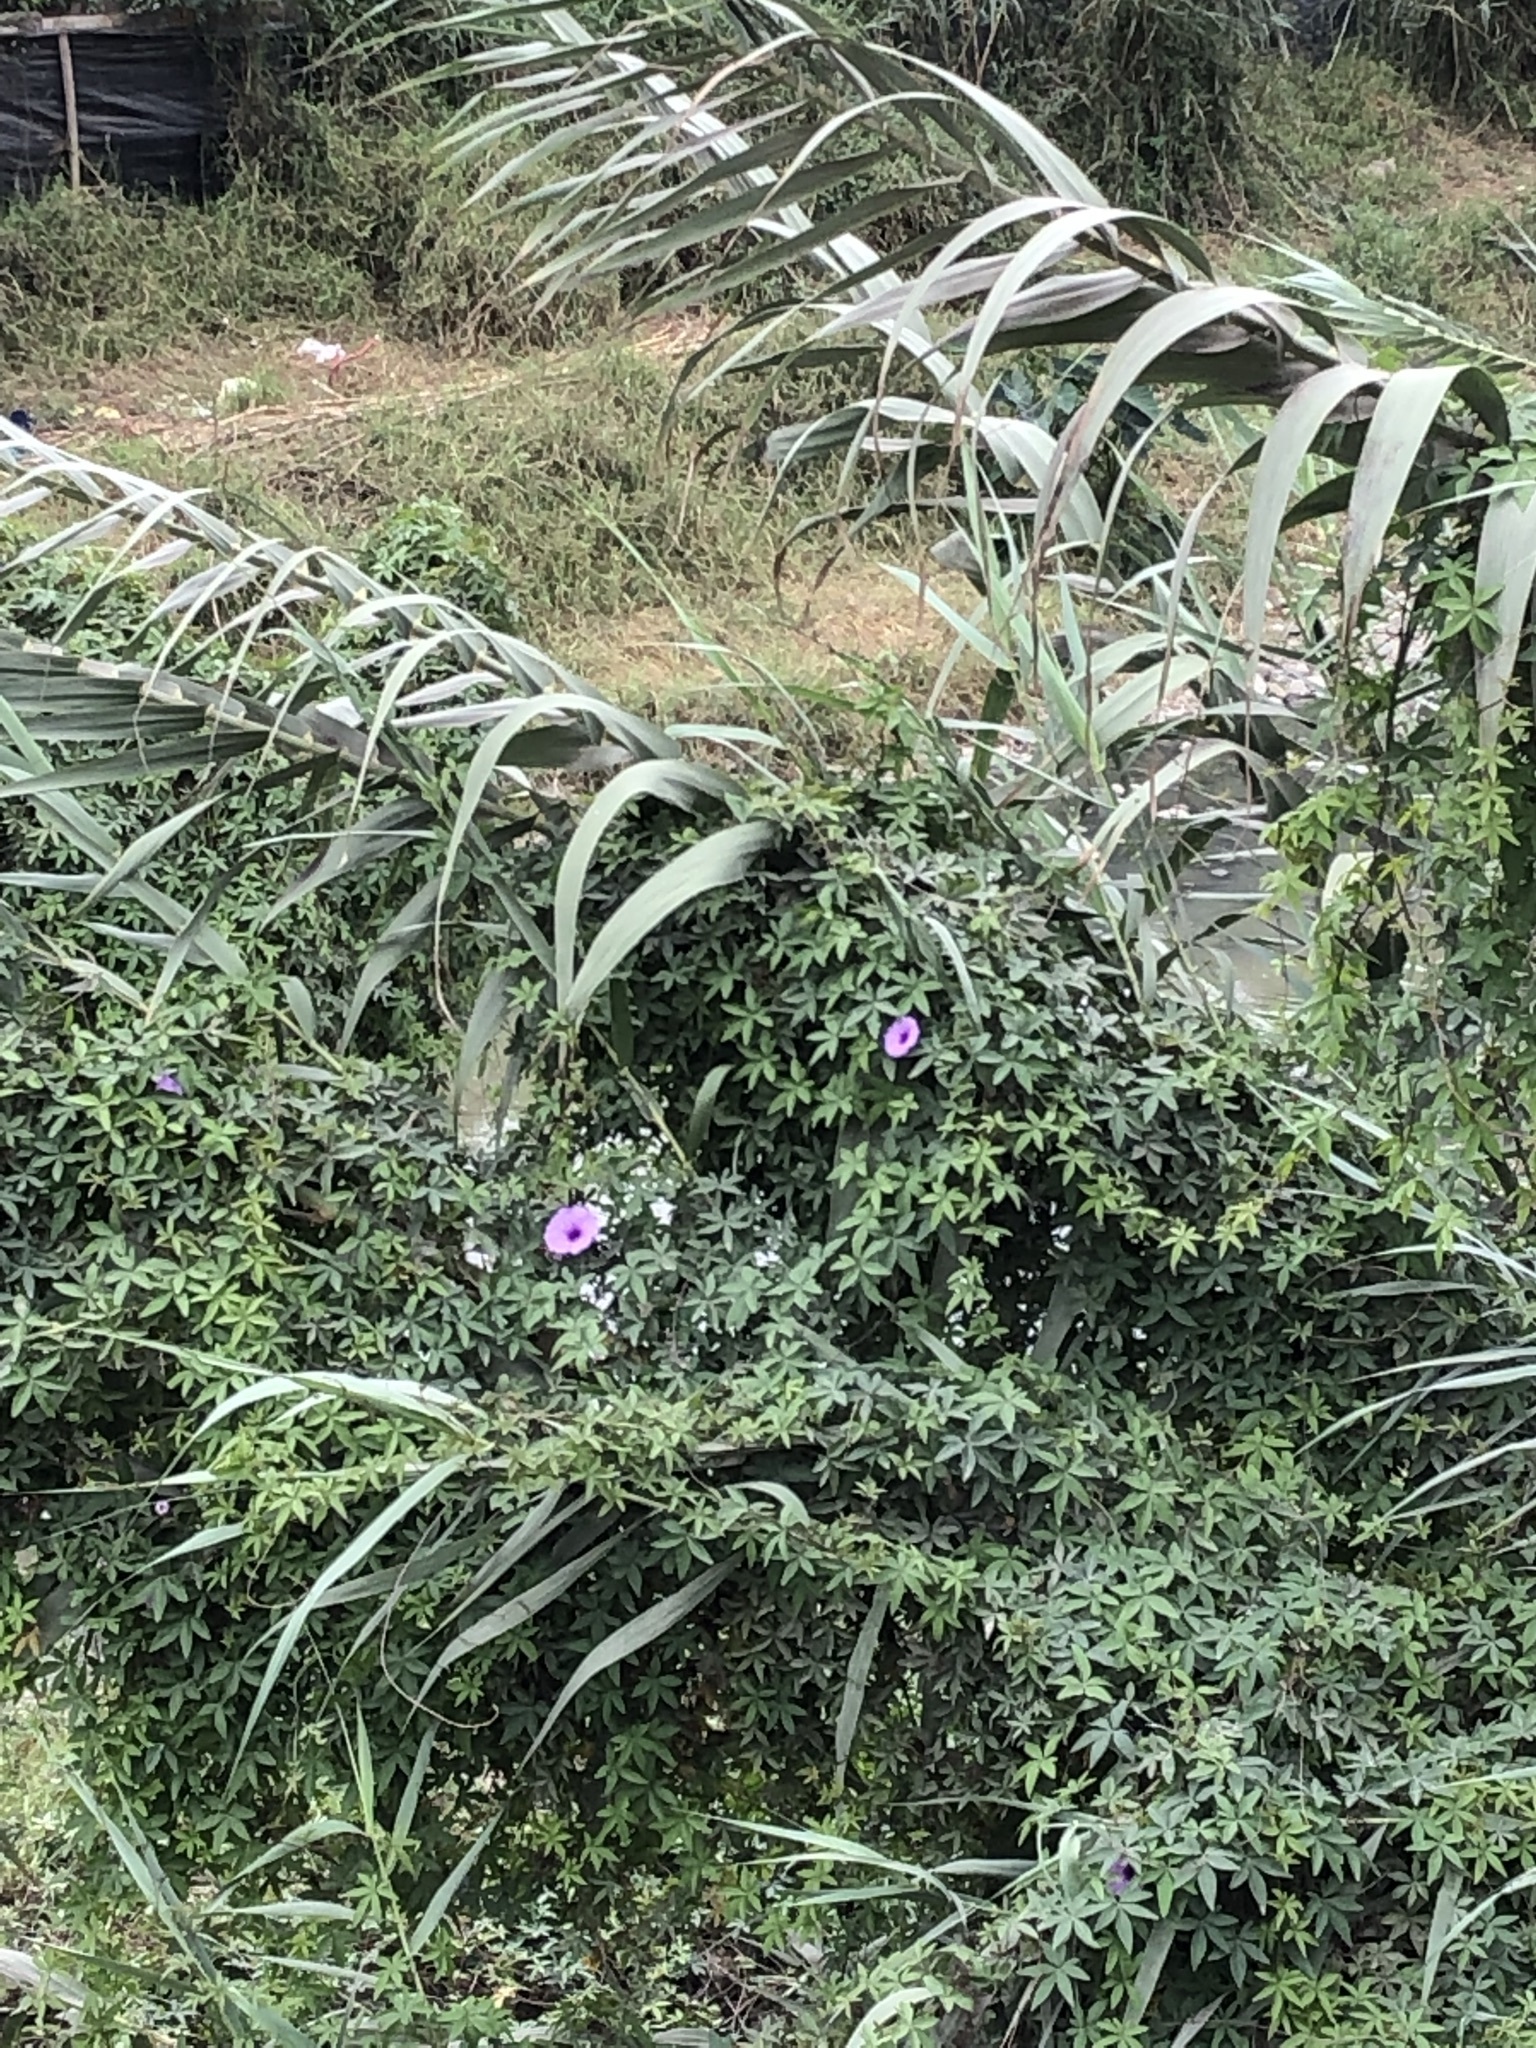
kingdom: Plantae
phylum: Tracheophyta
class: Magnoliopsida
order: Solanales
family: Convolvulaceae
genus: Ipomoea
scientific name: Ipomoea cairica
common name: Mile a minute vine
